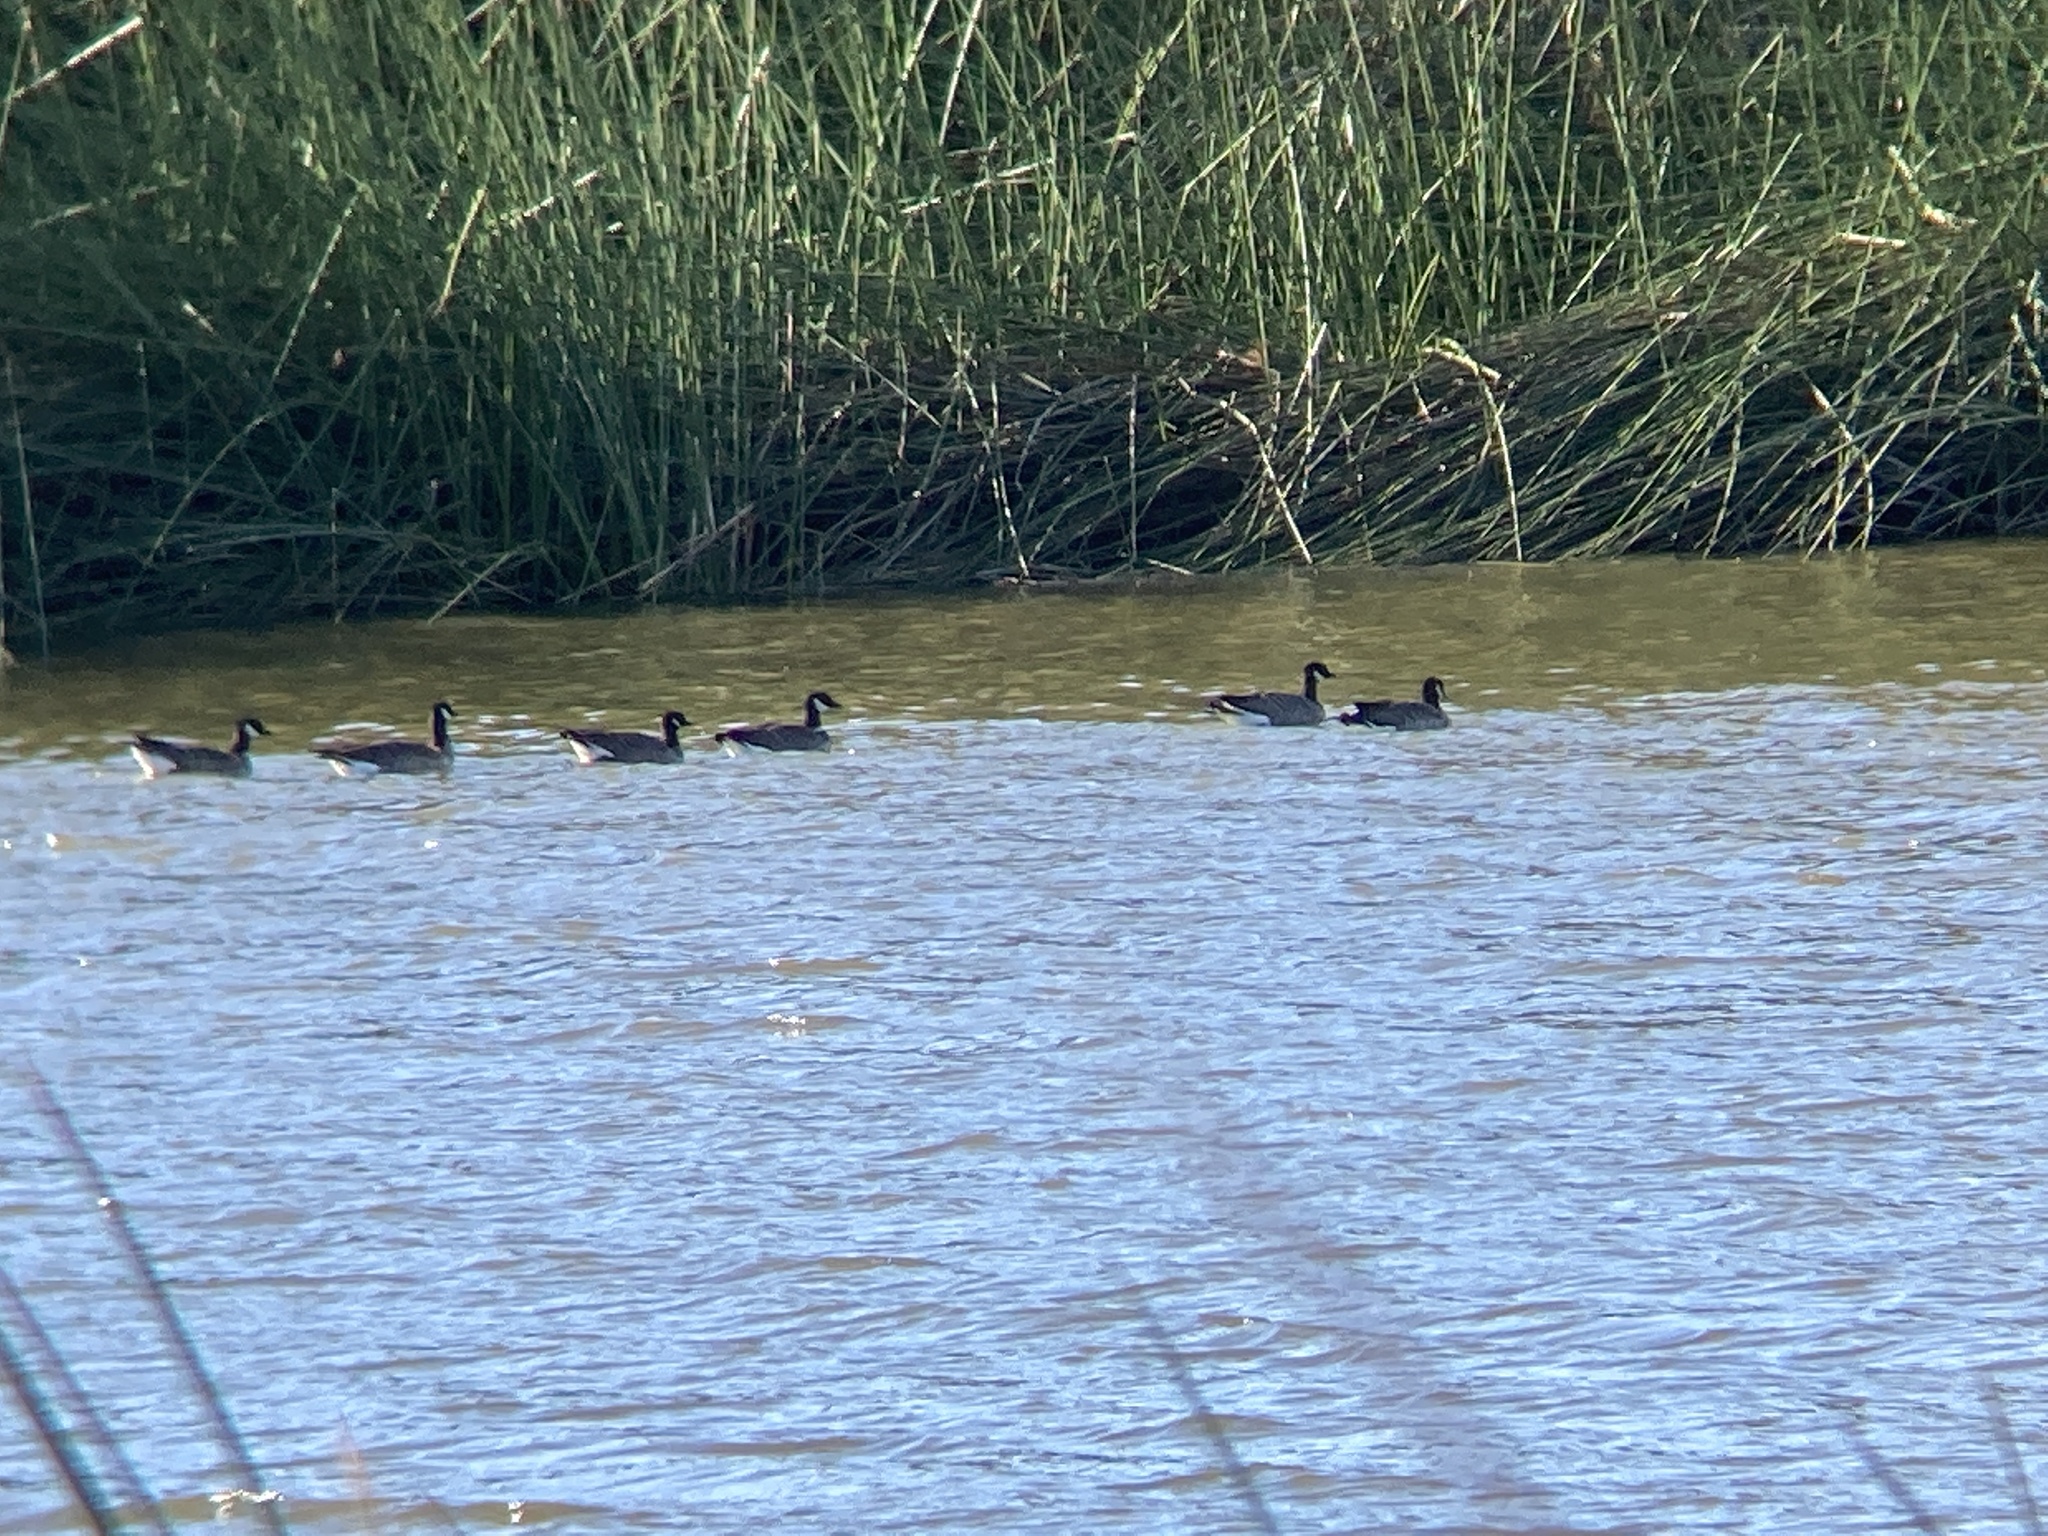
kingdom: Animalia
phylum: Chordata
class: Aves
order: Anseriformes
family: Anatidae
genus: Branta
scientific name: Branta hutchinsii
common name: Cackling goose
